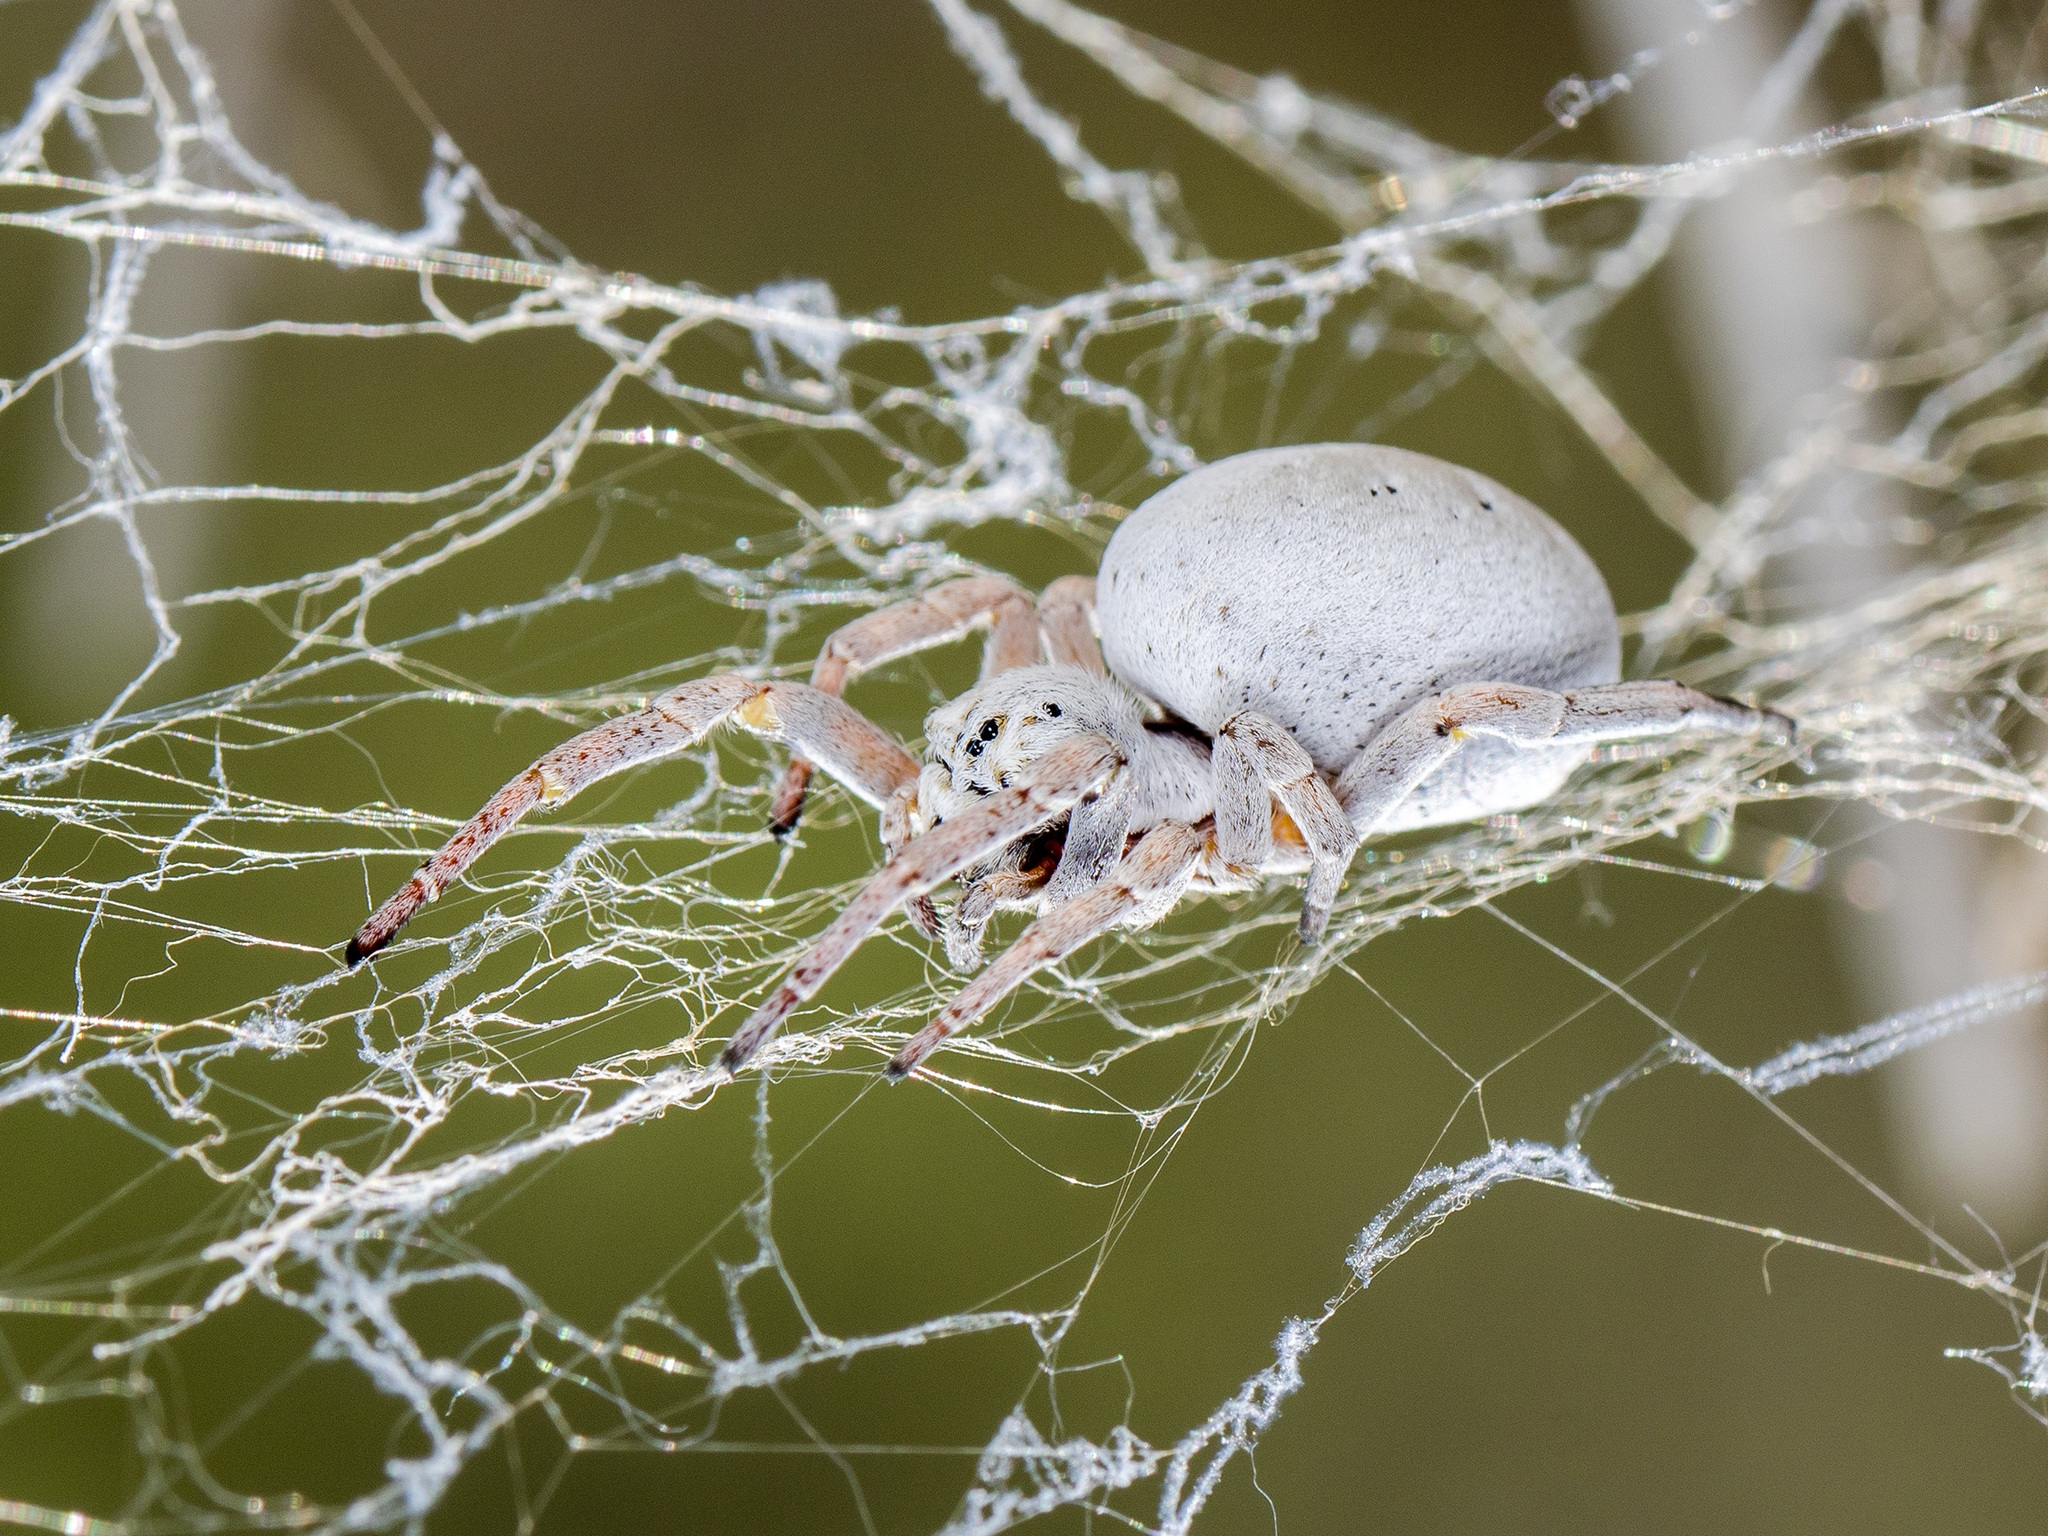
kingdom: Animalia
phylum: Arthropoda
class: Arachnida
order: Araneae
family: Eresidae
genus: Stegodyphus
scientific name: Stegodyphus lineatus
